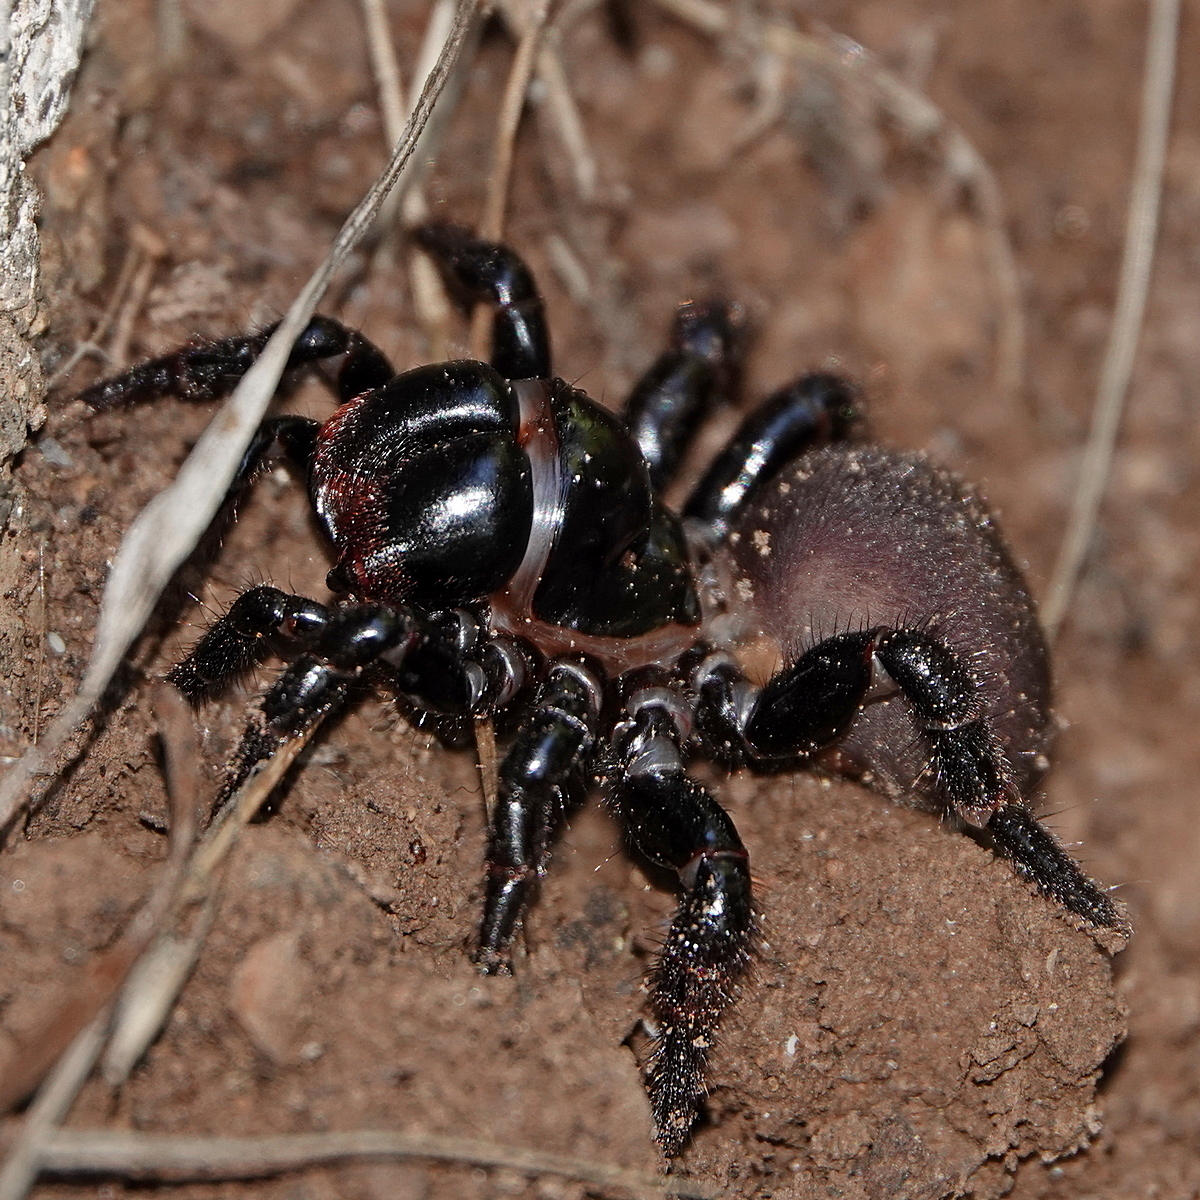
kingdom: Animalia
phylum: Arthropoda
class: Arachnida
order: Araneae
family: Actinopodidae
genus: Missulena
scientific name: Missulena bradleyi
